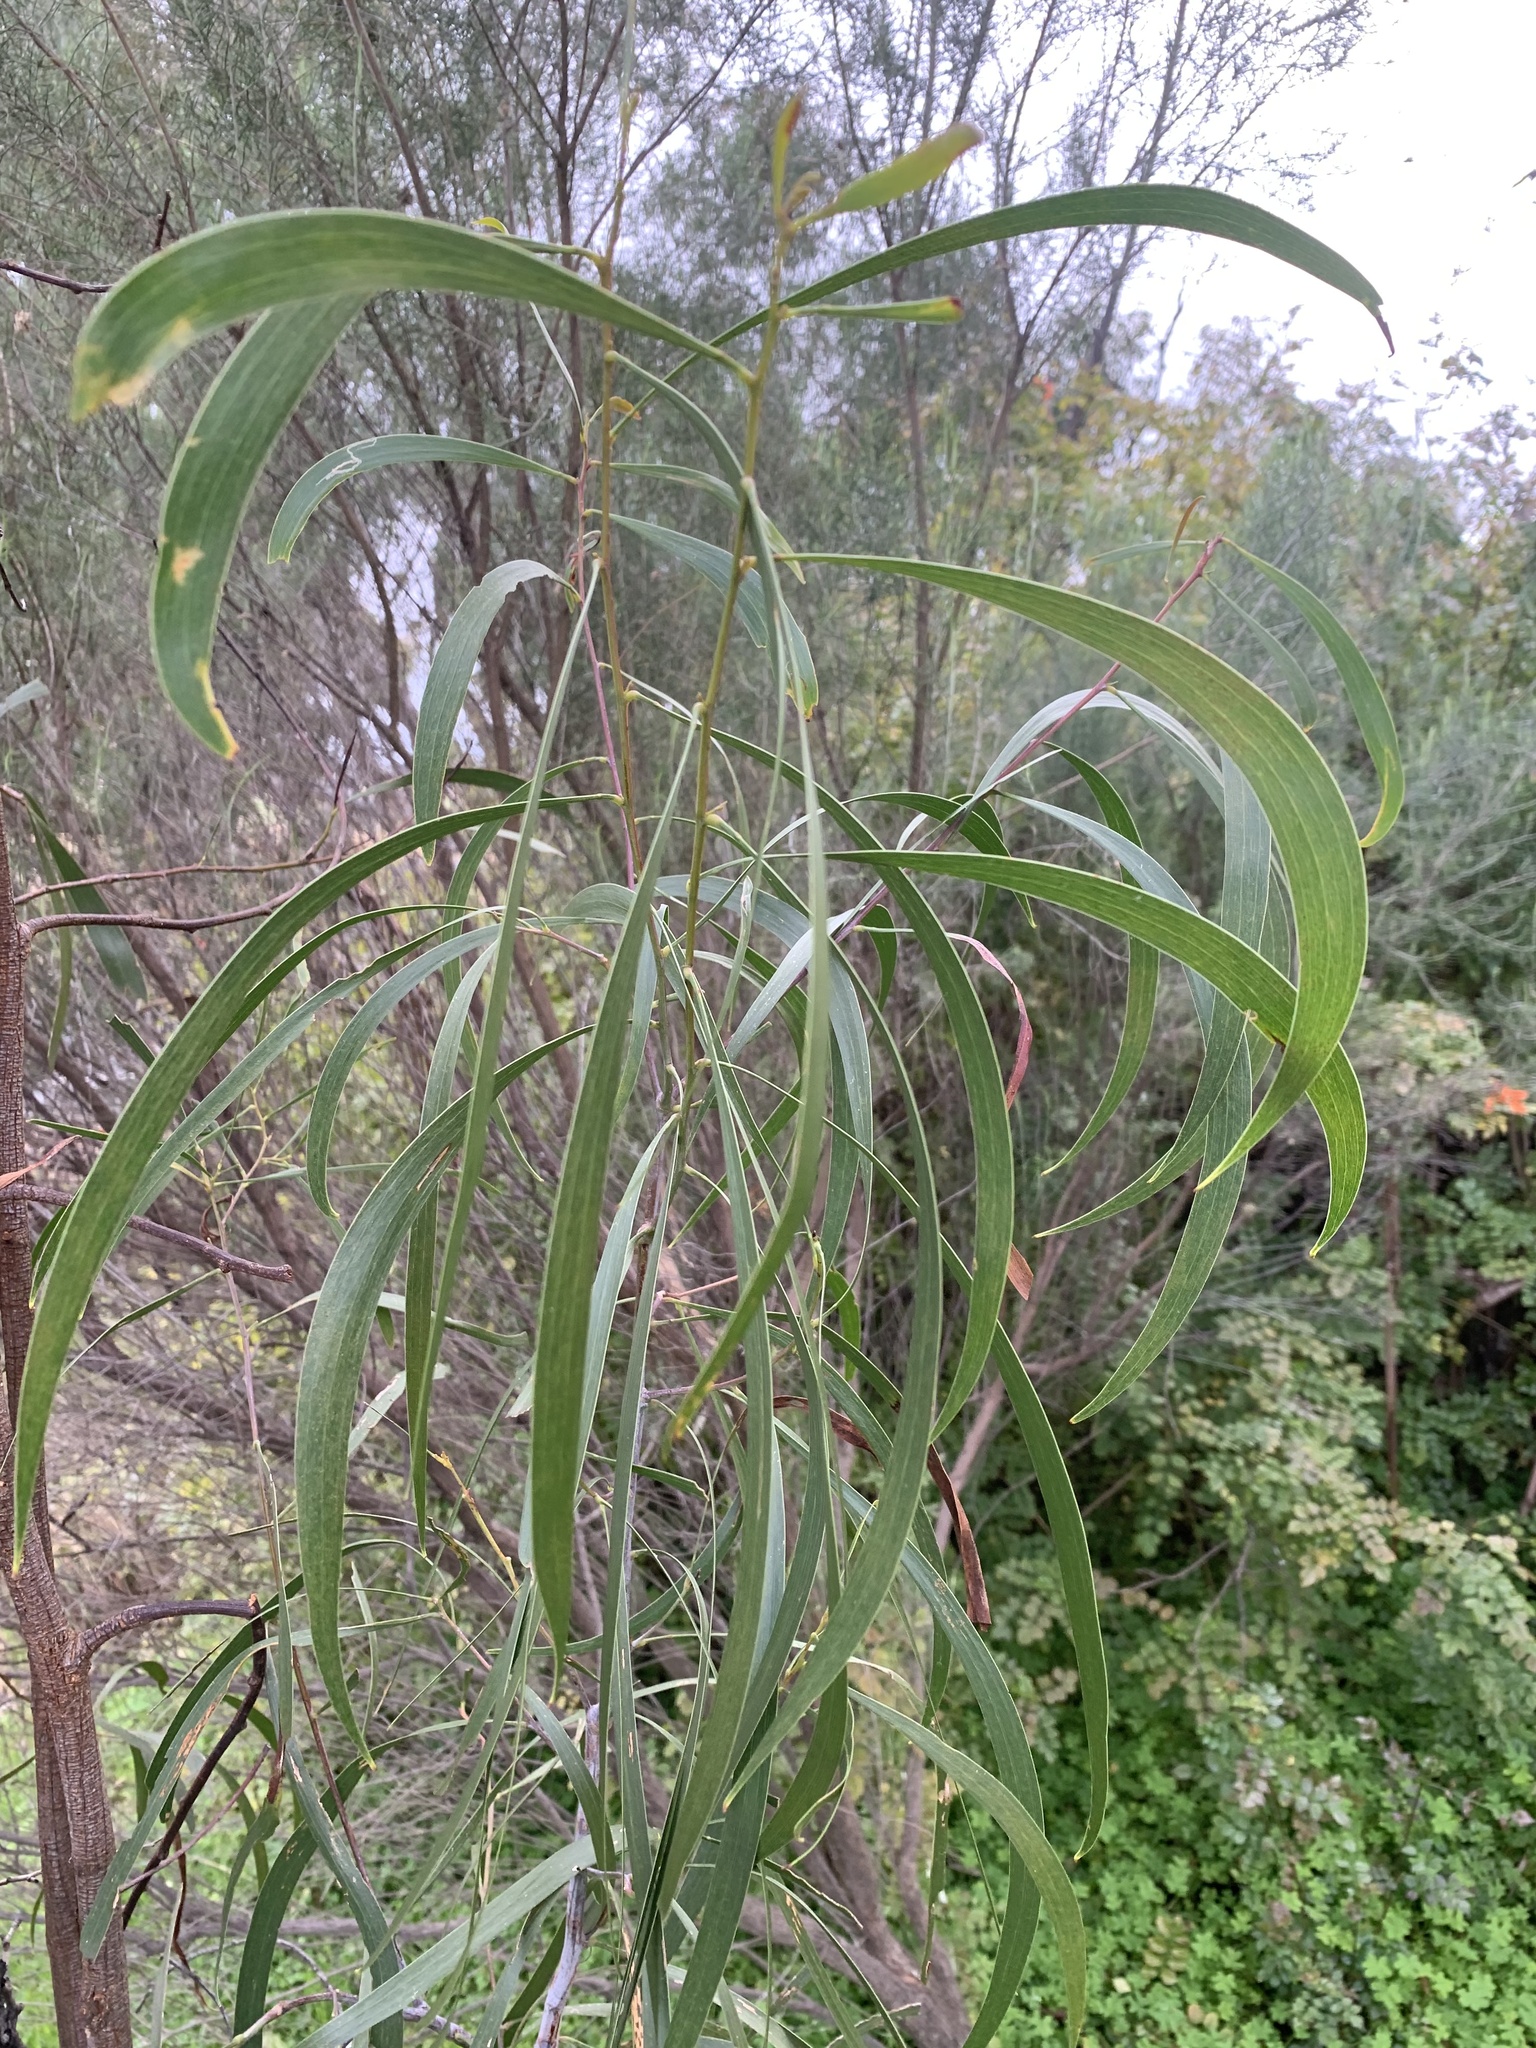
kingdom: Plantae
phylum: Tracheophyta
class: Magnoliopsida
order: Fabales
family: Fabaceae
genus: Acacia
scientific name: Acacia implexa
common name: Black wattle
